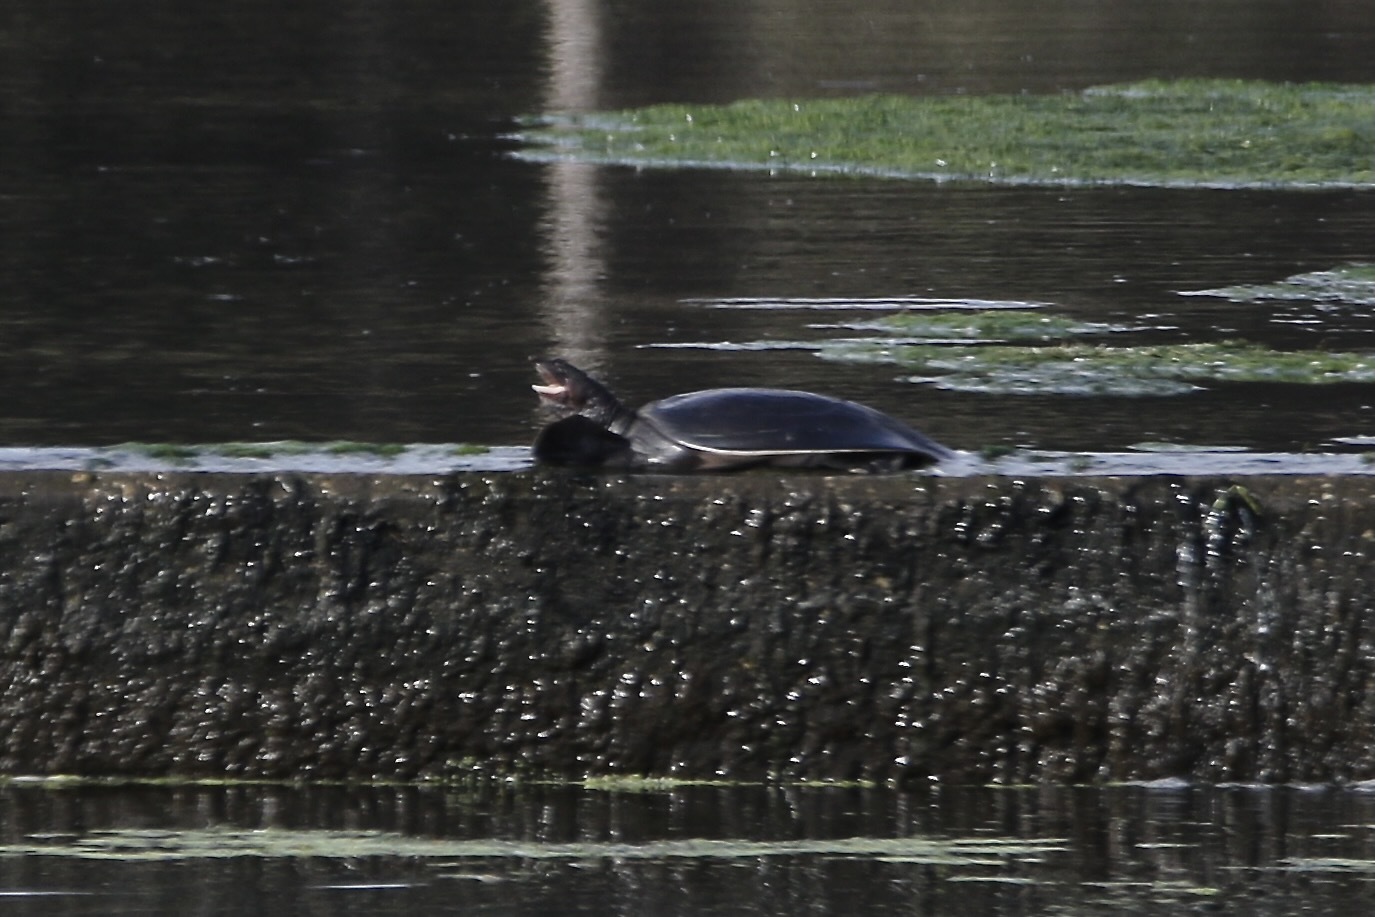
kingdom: Animalia
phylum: Chordata
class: Testudines
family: Trionychidae
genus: Apalone
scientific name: Apalone ferox
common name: Florida softshell turtle
